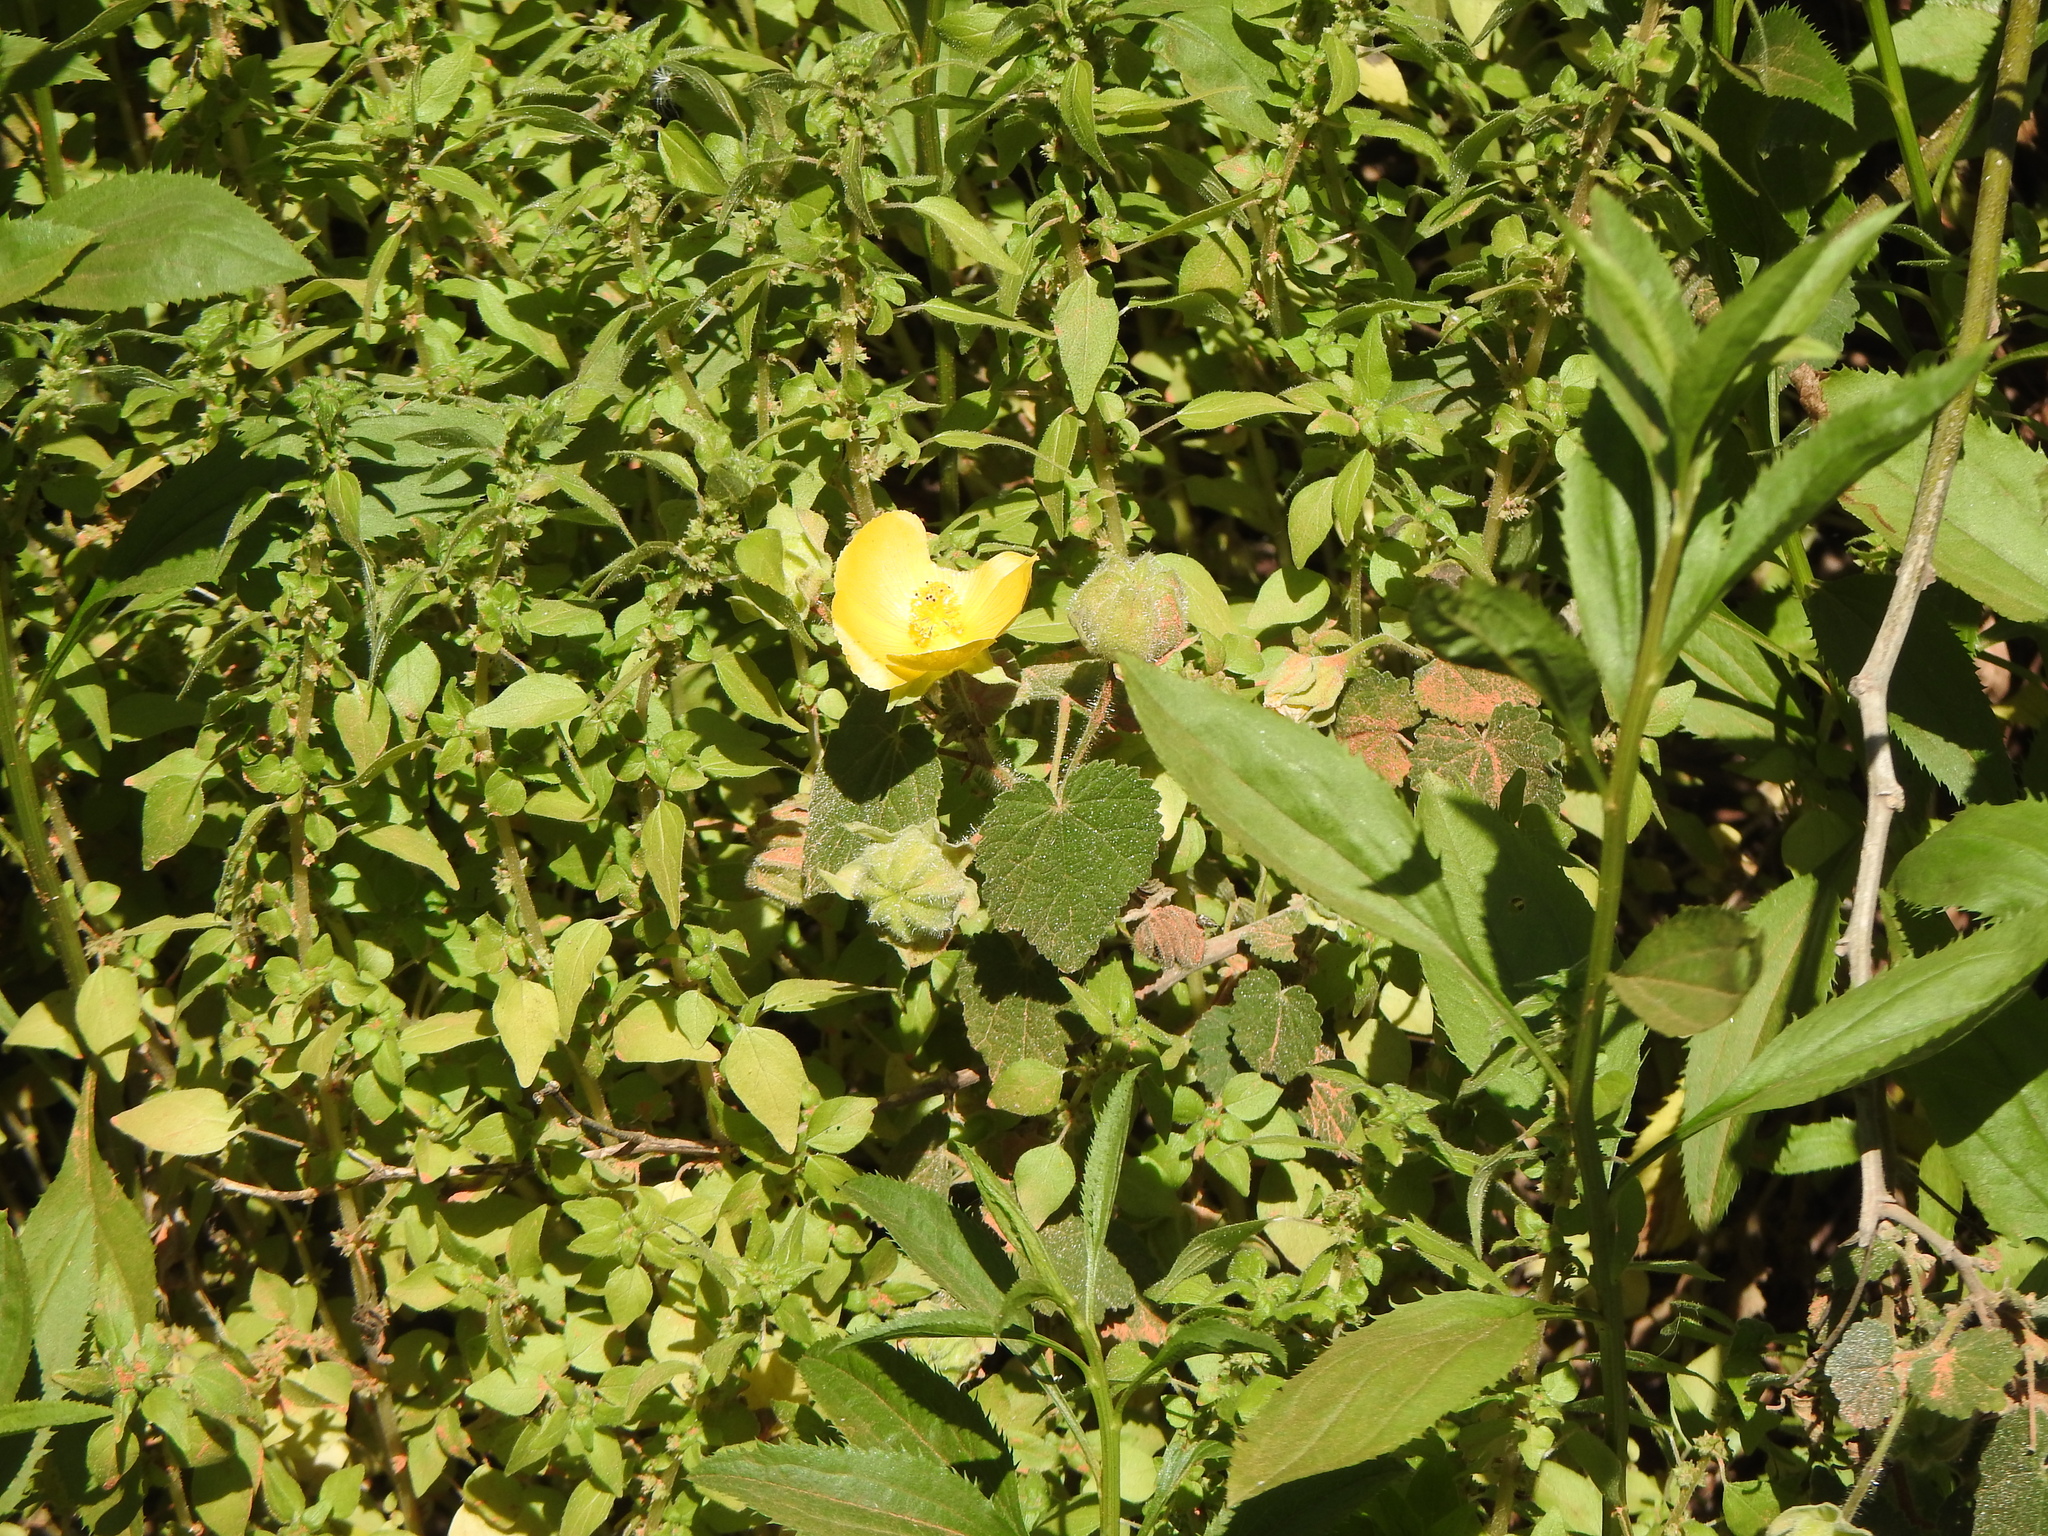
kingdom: Plantae
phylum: Tracheophyta
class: Magnoliopsida
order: Malvales
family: Malvaceae
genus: Abutilon
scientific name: Abutilon grandifolium
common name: Hairy abutilon
